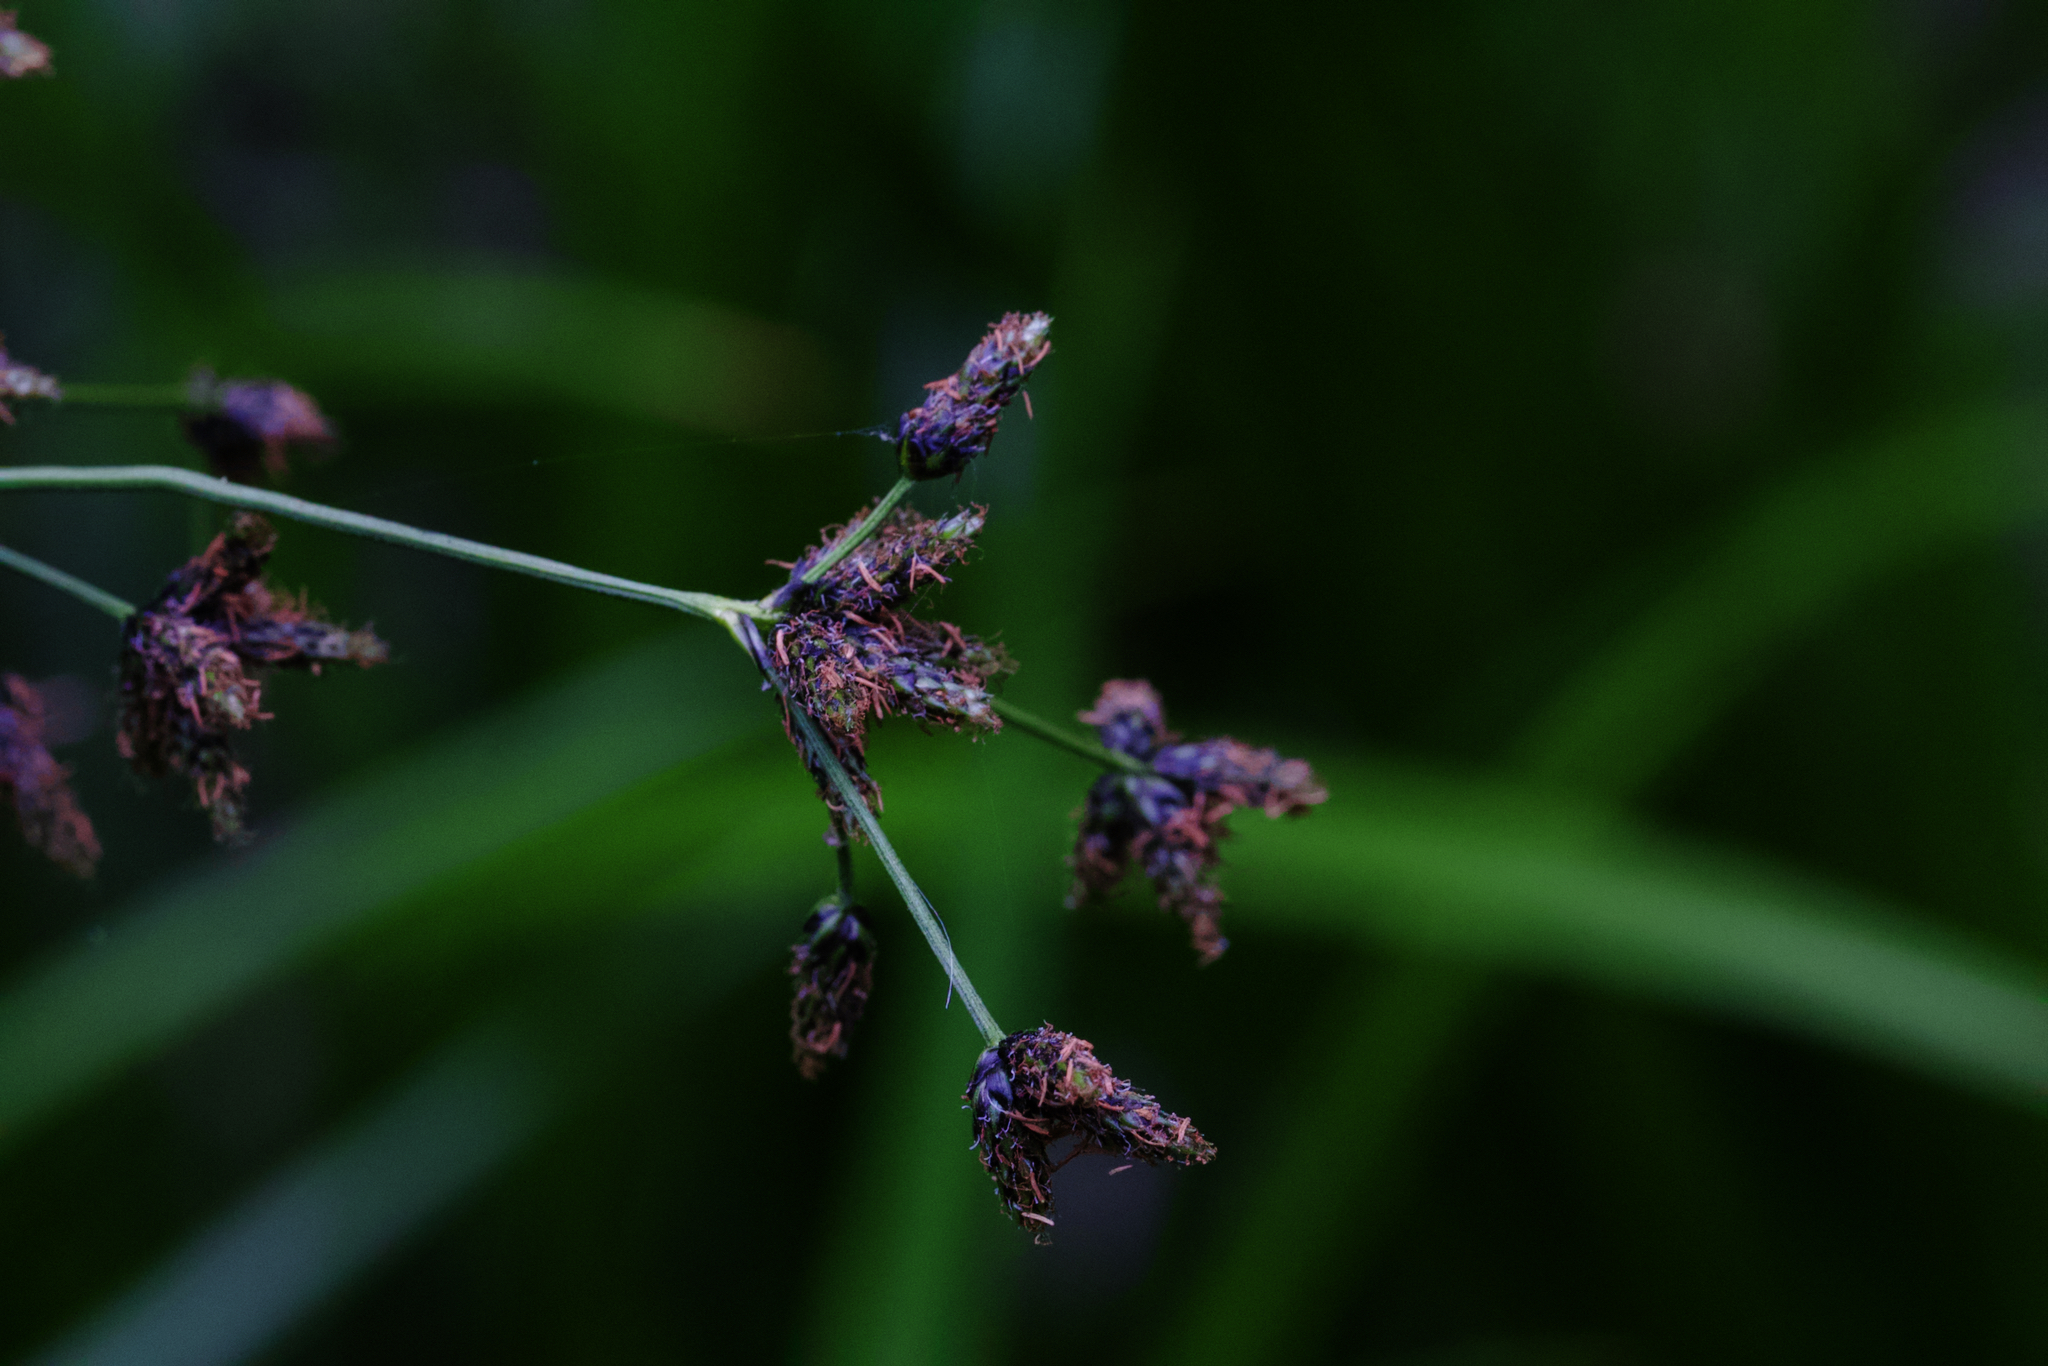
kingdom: Plantae
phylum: Tracheophyta
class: Liliopsida
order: Poales
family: Cyperaceae
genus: Scirpus
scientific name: Scirpus microcarpus
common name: Panicled bulrush
